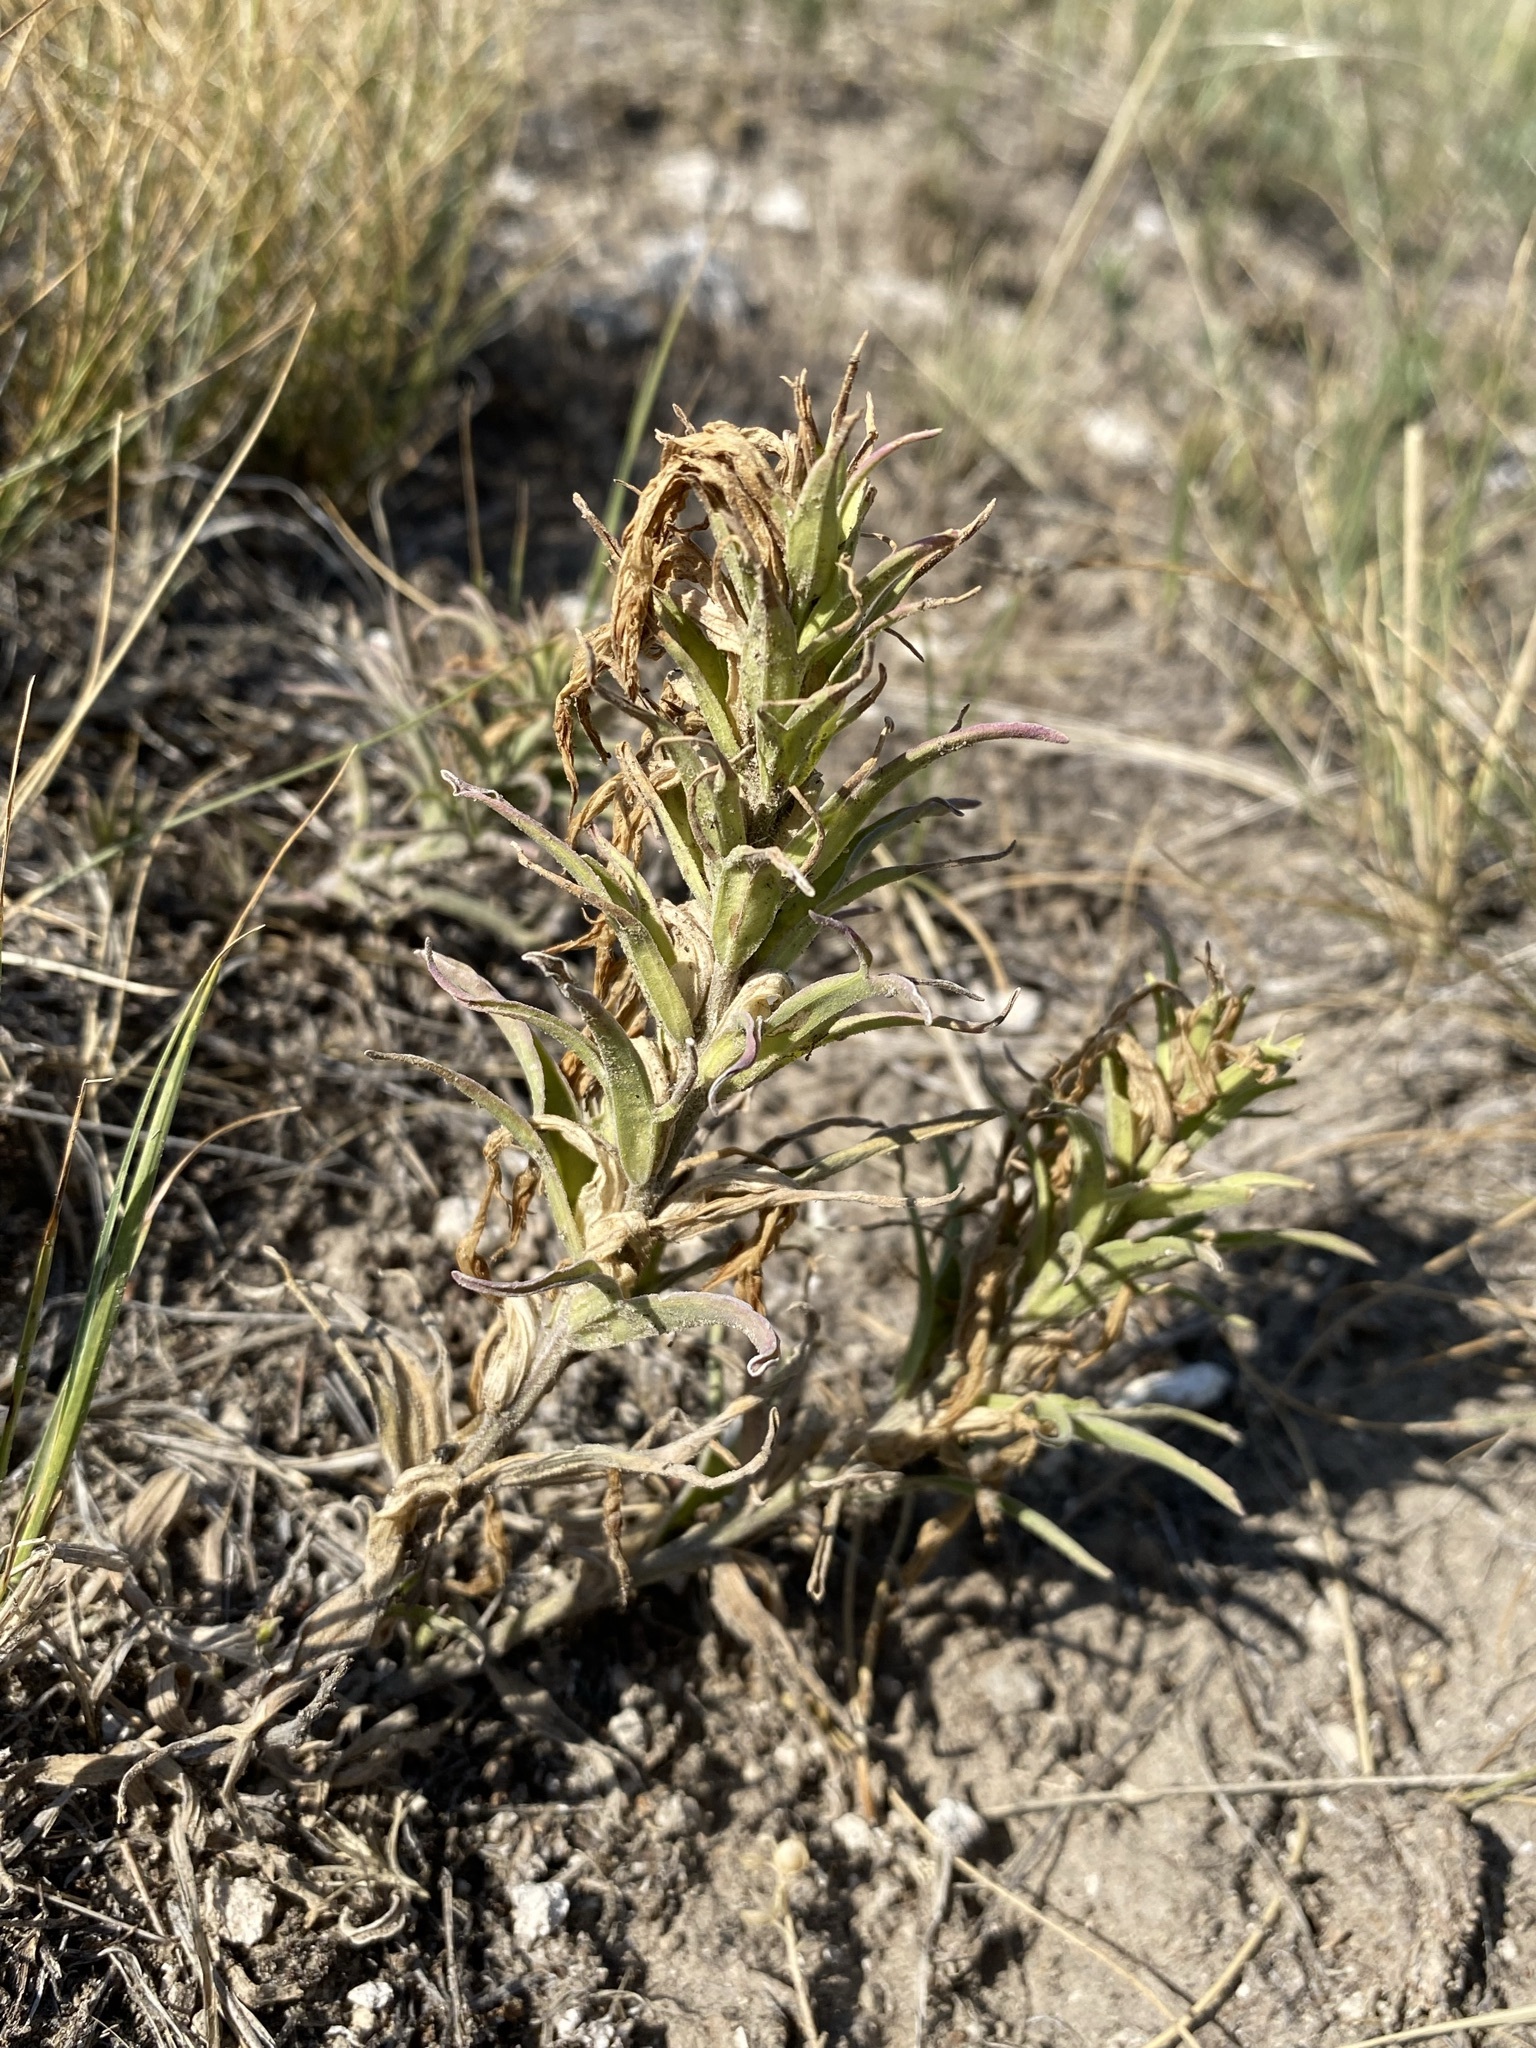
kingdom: Plantae
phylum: Tracheophyta
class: Magnoliopsida
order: Lamiales
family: Orobanchaceae
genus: Castilleja
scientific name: Castilleja sessiliflora
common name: Downy paintbrush
